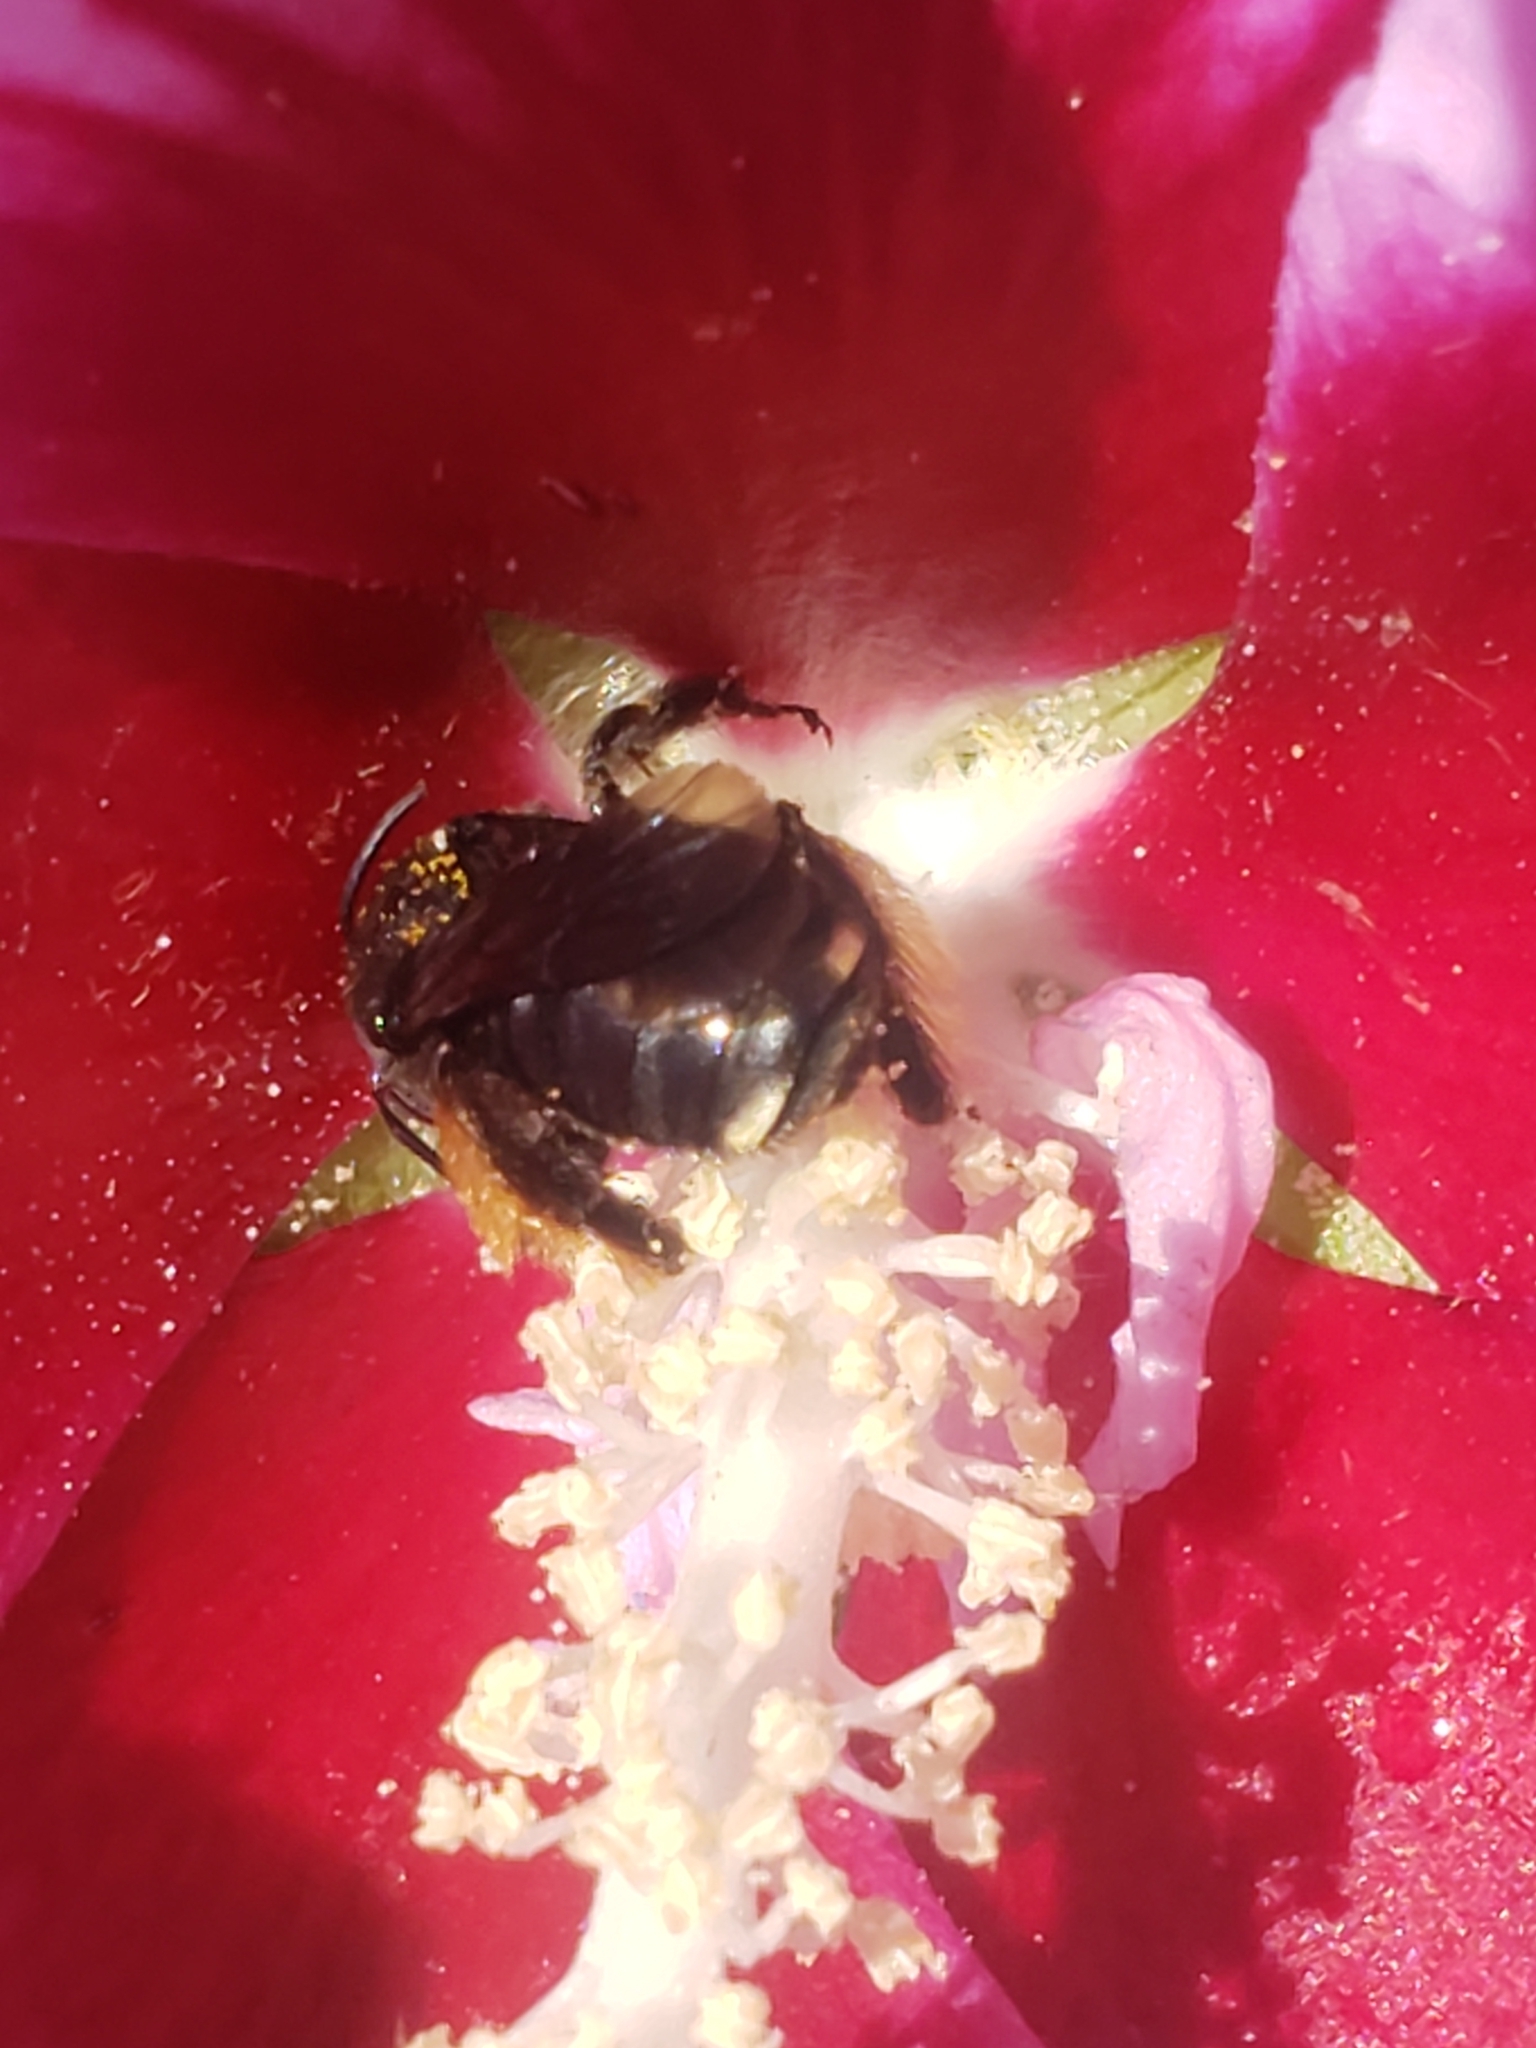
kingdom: Animalia
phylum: Arthropoda
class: Insecta
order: Hymenoptera
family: Apidae
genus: Melissodes
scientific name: Melissodes bimaculatus
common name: Two-spotted long-horned bee
